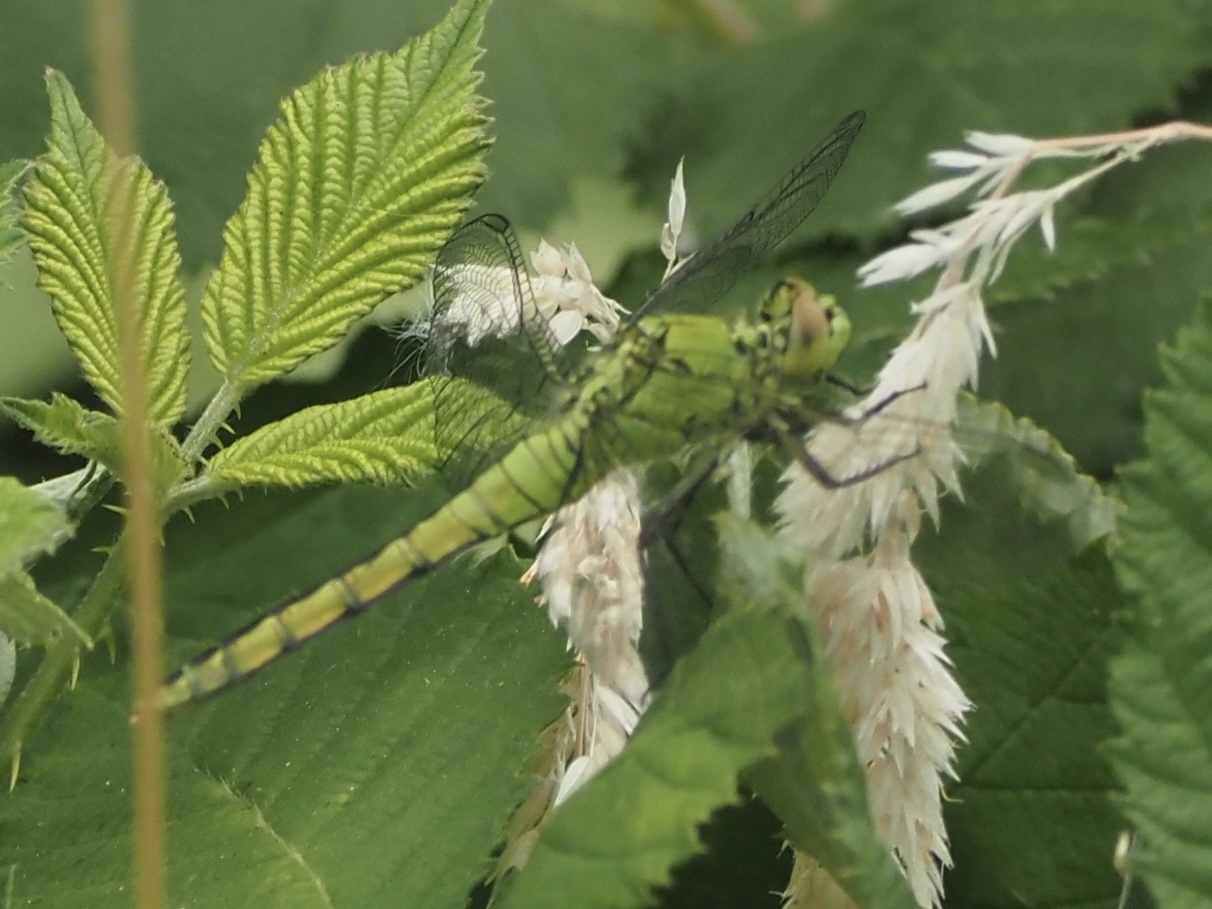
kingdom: Animalia
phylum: Arthropoda
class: Insecta
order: Odonata
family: Libellulidae
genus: Erythemis
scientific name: Erythemis collocata
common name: Western pondhawk
